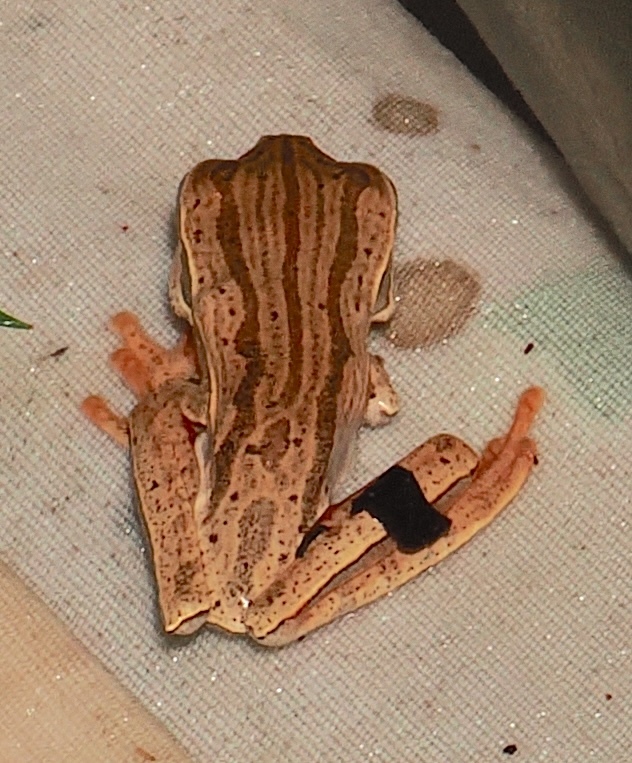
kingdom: Animalia
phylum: Chordata
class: Amphibia
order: Anura
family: Hylidae
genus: Boana
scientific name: Boana bischoffi
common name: Bischoff's treefrog
